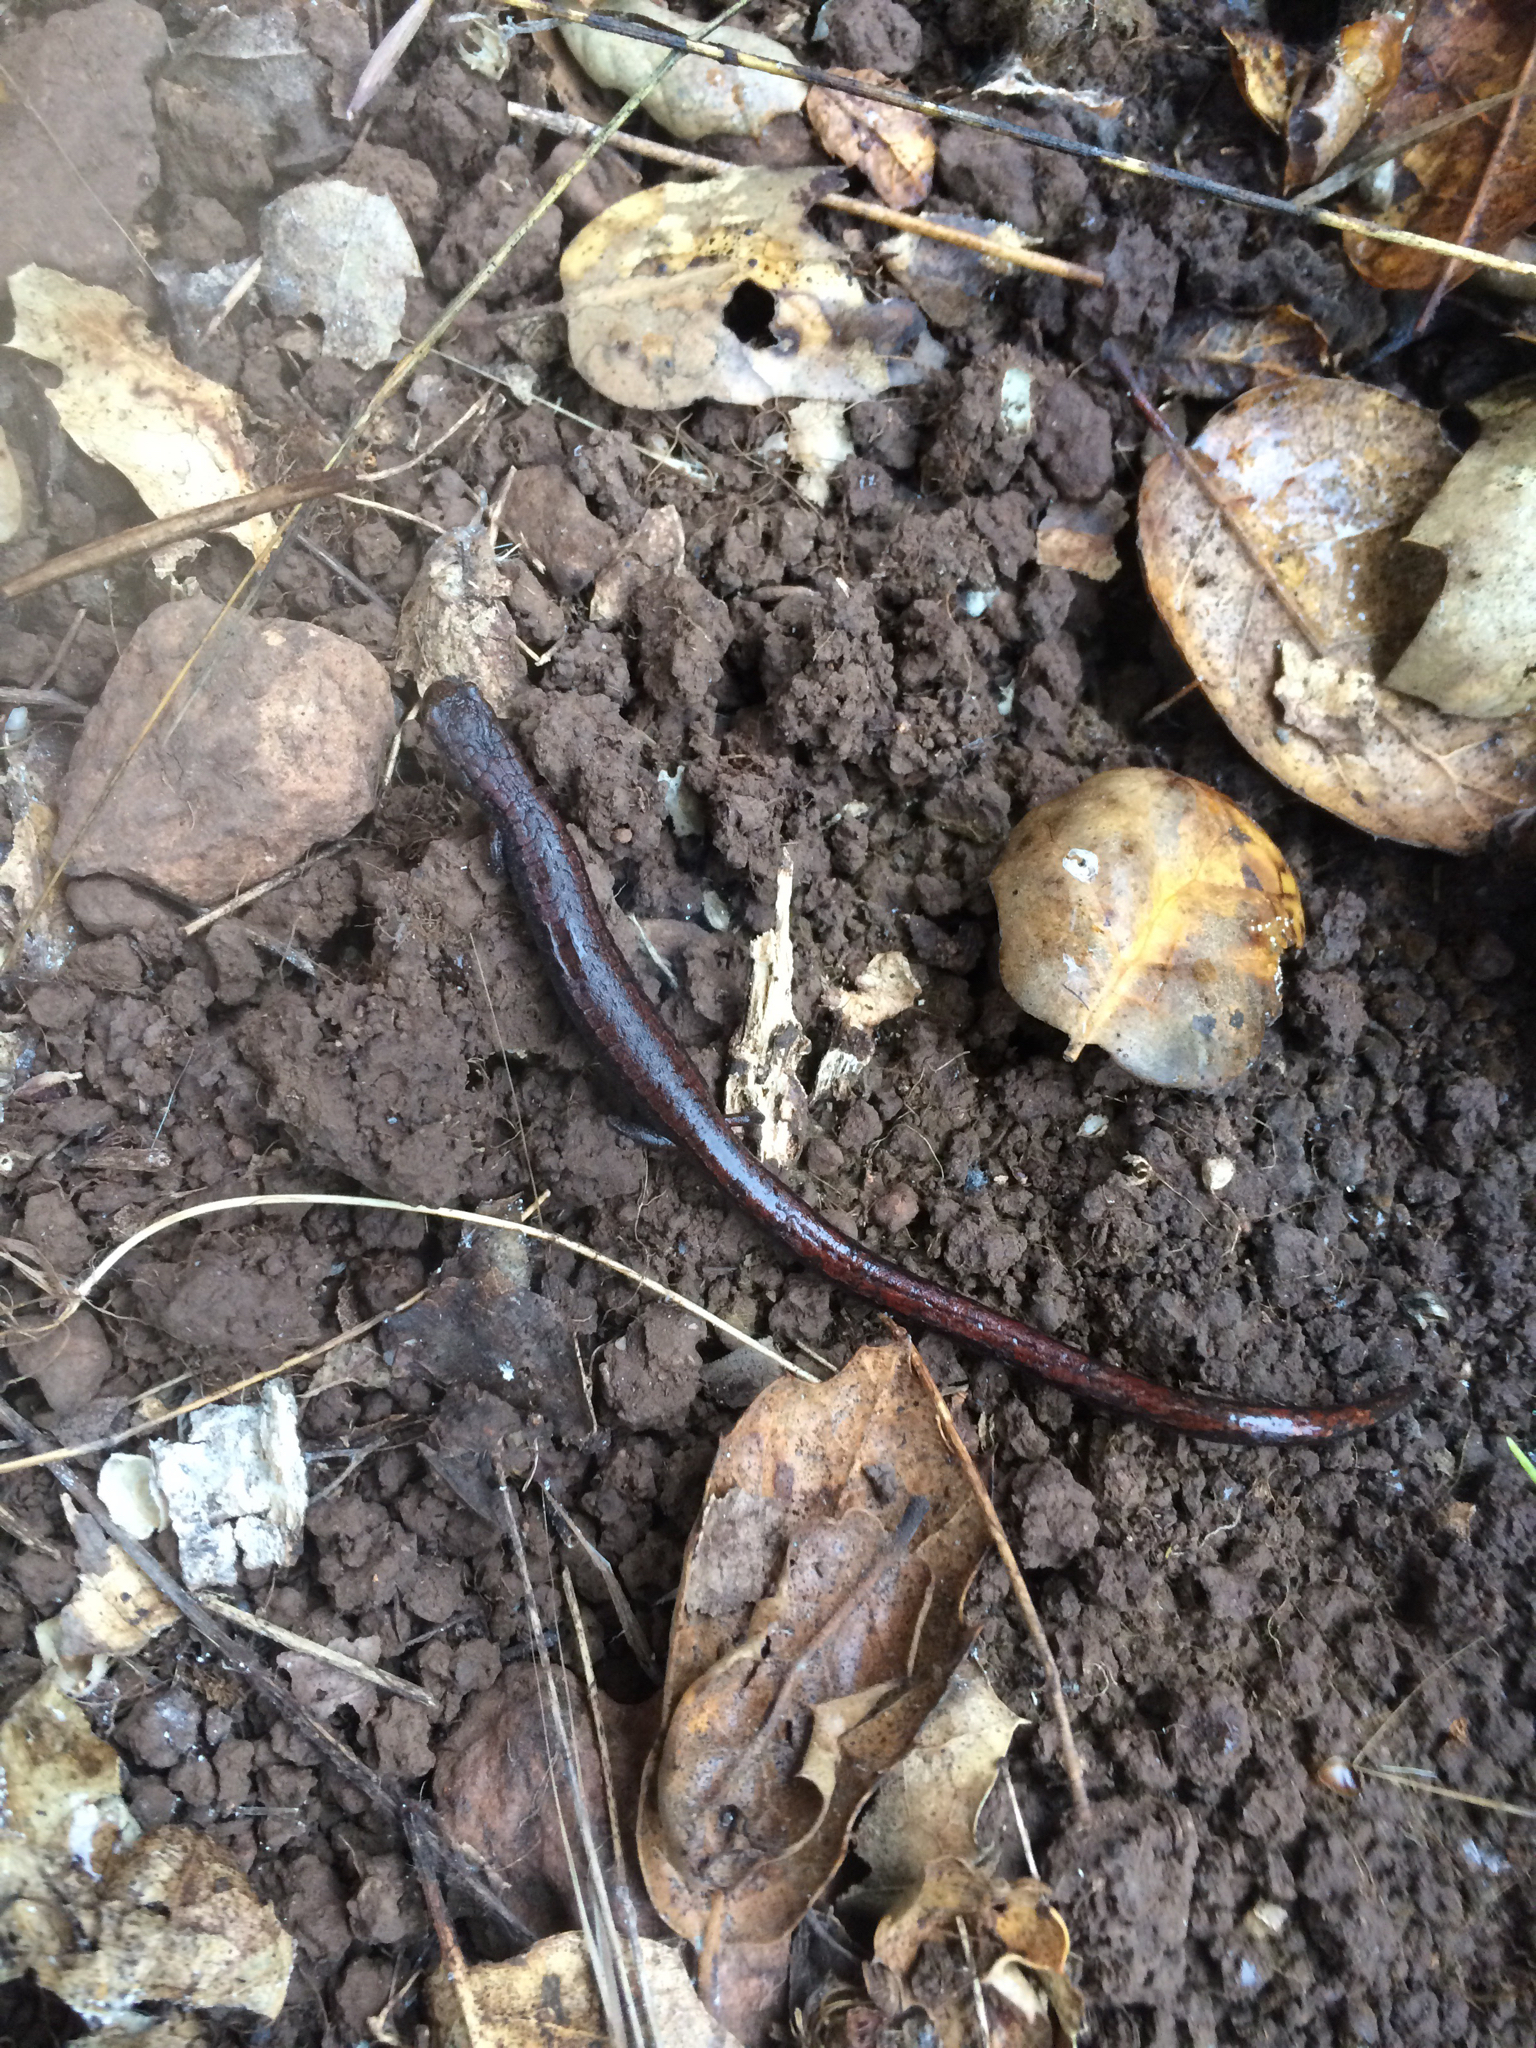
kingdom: Animalia
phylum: Chordata
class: Amphibia
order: Caudata
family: Plethodontidae
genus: Batrachoseps
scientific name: Batrachoseps attenuatus
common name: California slender salamander
